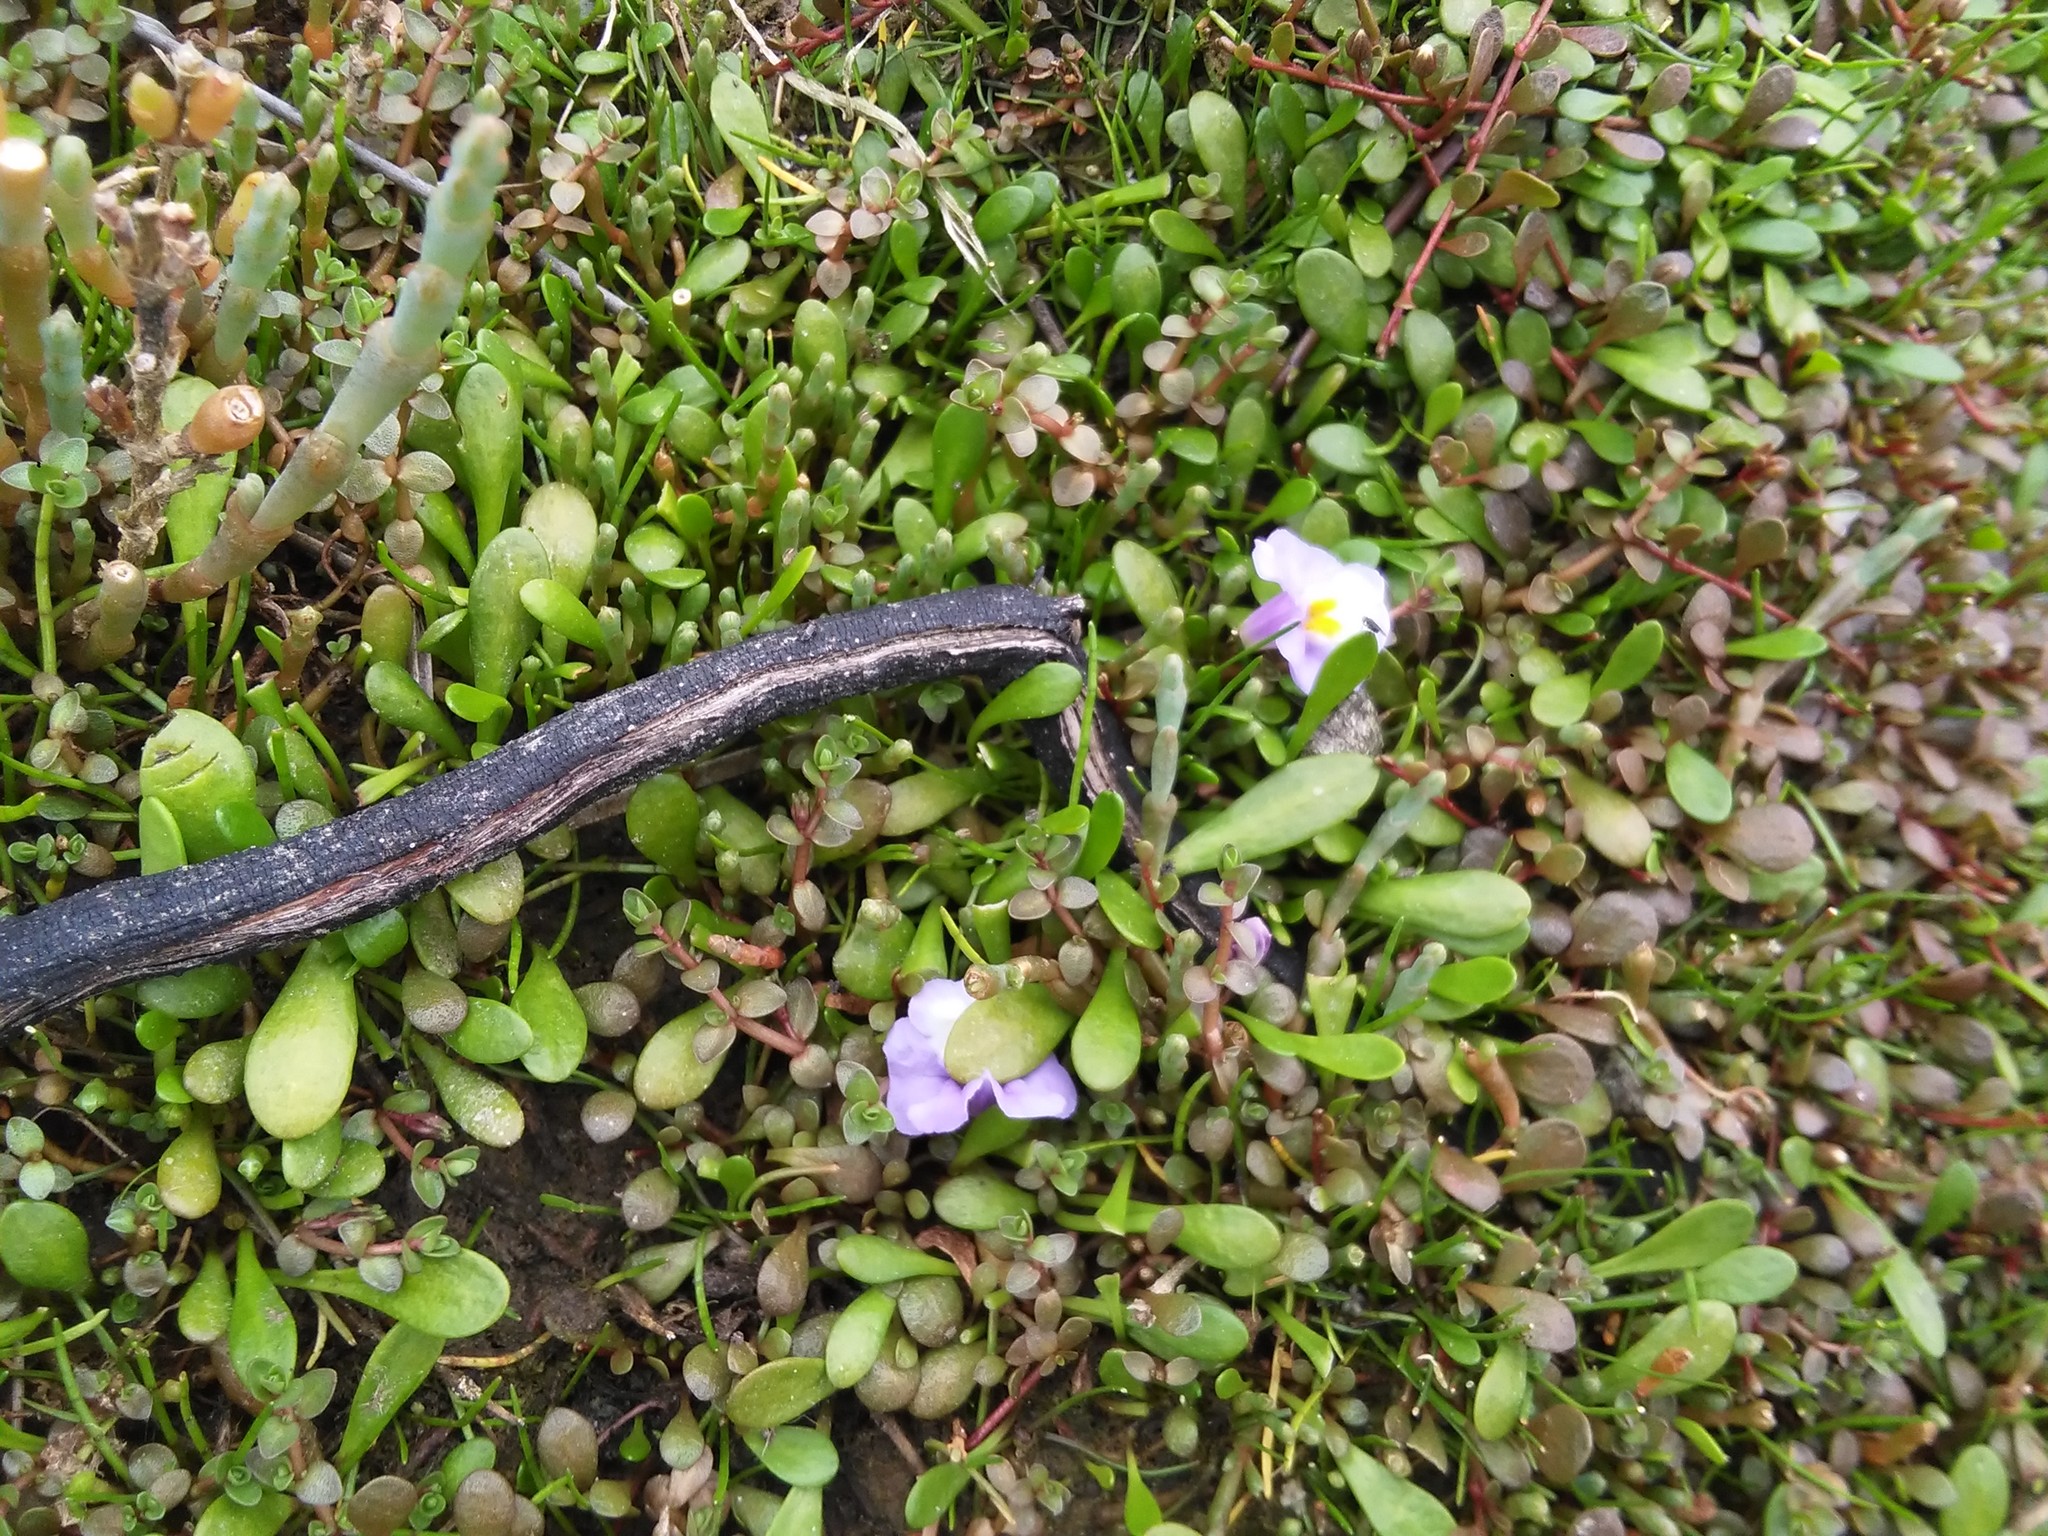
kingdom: Plantae
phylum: Tracheophyta
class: Magnoliopsida
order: Lamiales
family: Phrymaceae
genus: Thyridia
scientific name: Thyridia repens
